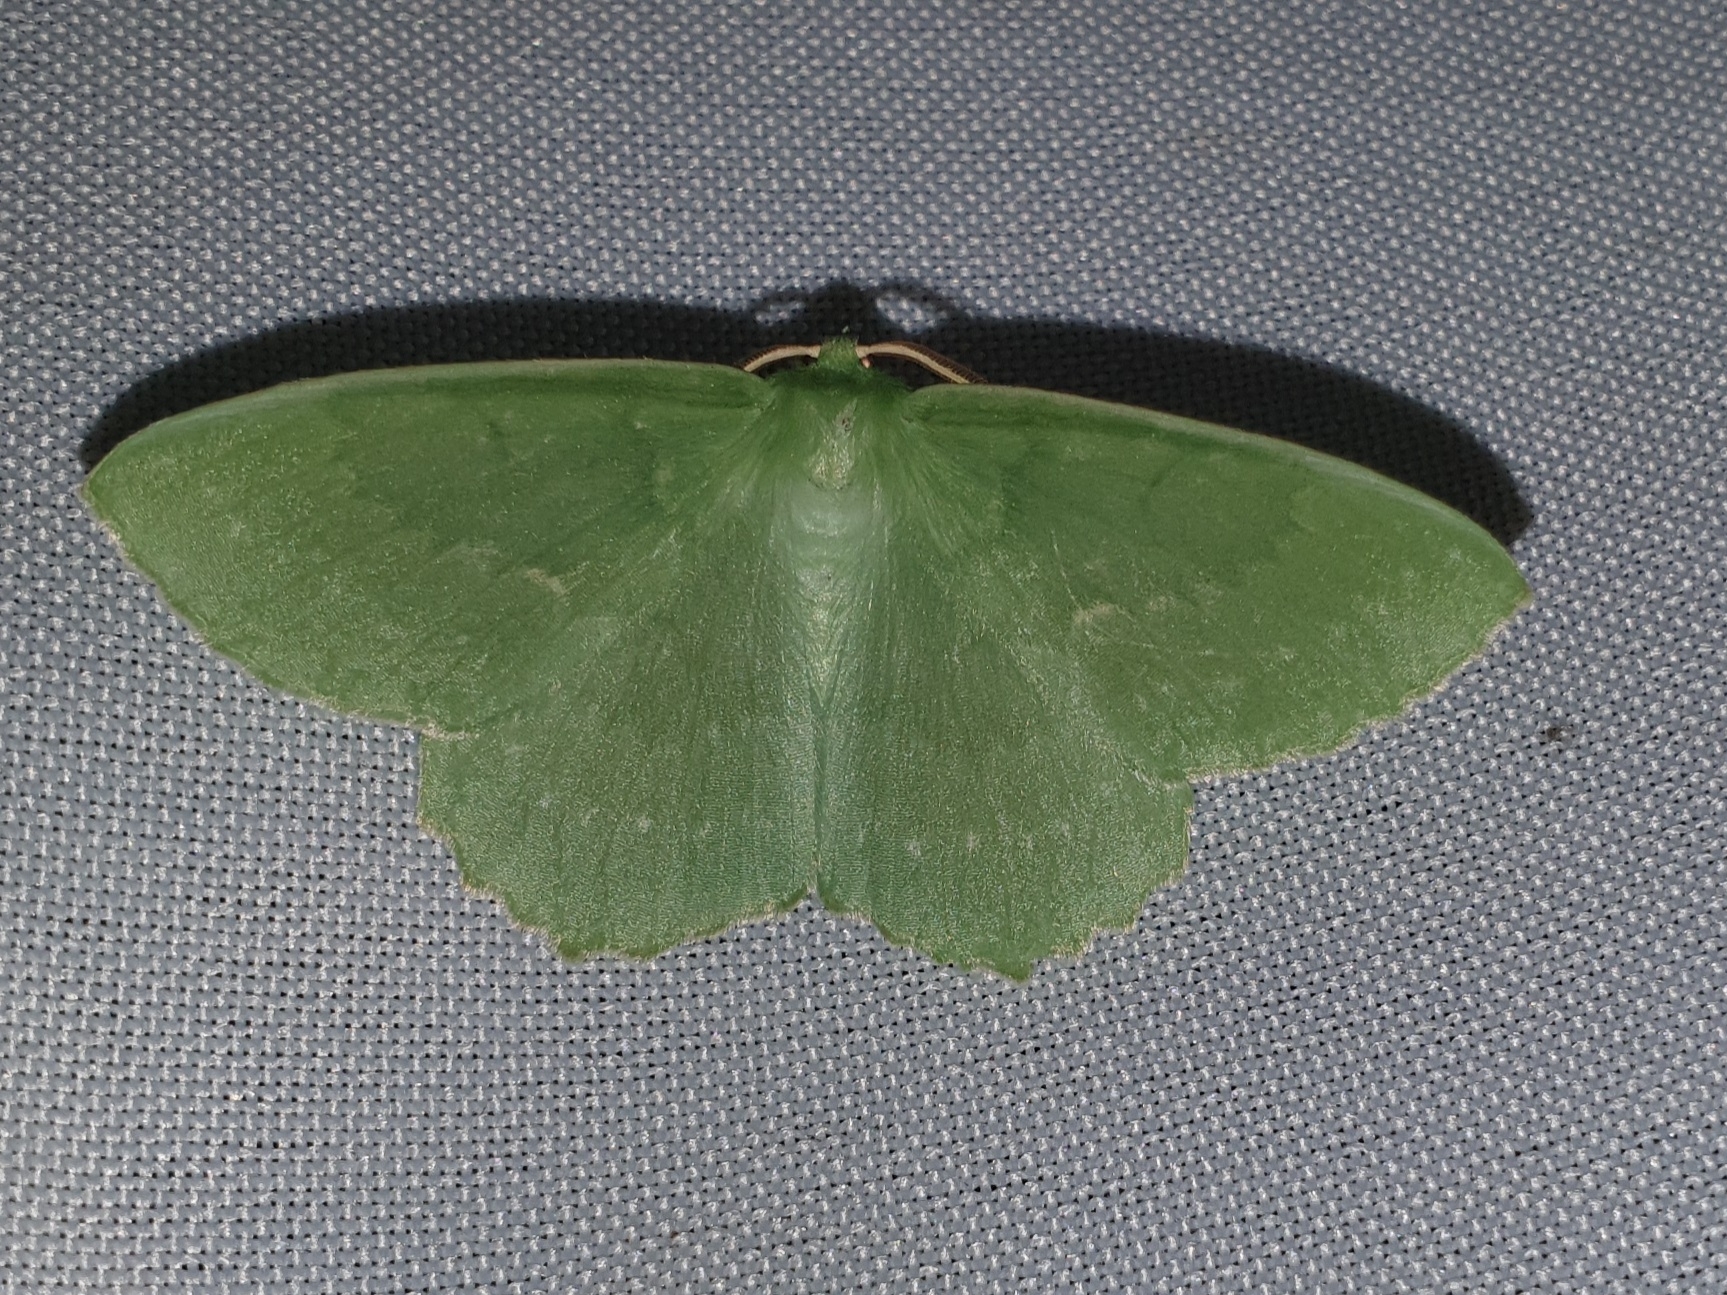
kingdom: Animalia
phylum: Arthropoda
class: Insecta
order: Lepidoptera
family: Geometridae
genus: Geometra
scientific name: Geometra papilionaria
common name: Large emerald
